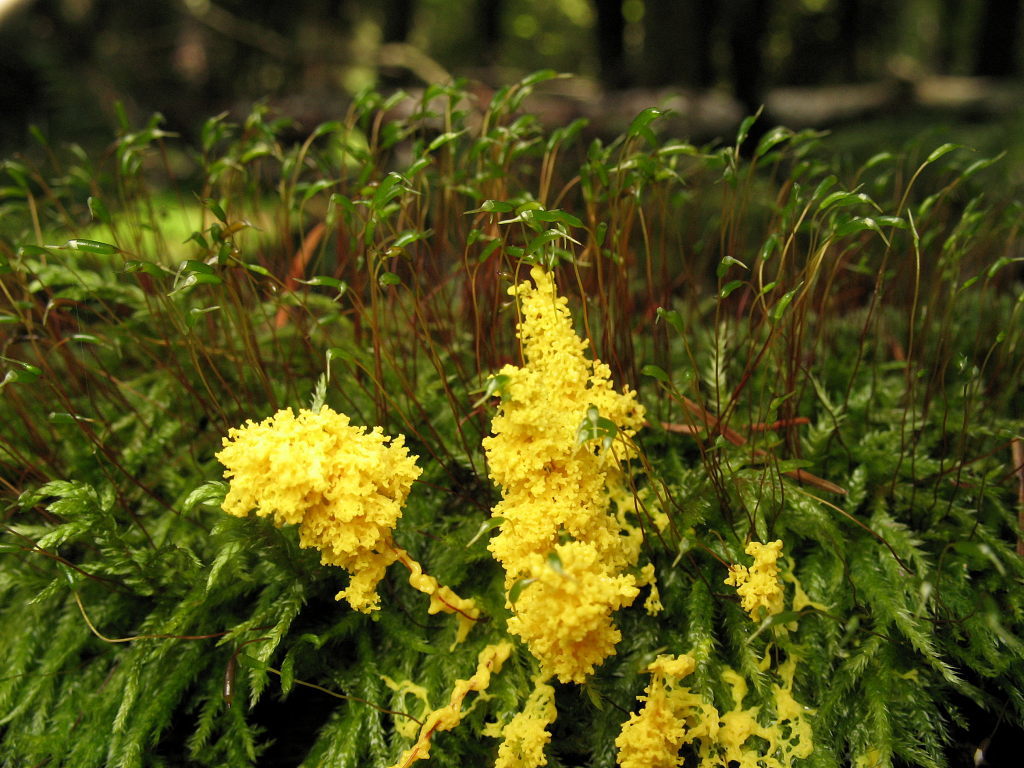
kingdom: Protozoa
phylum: Mycetozoa
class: Myxomycetes
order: Physarales
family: Physaraceae
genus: Fuligo
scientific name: Fuligo septica
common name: Dog vomit slime mold
